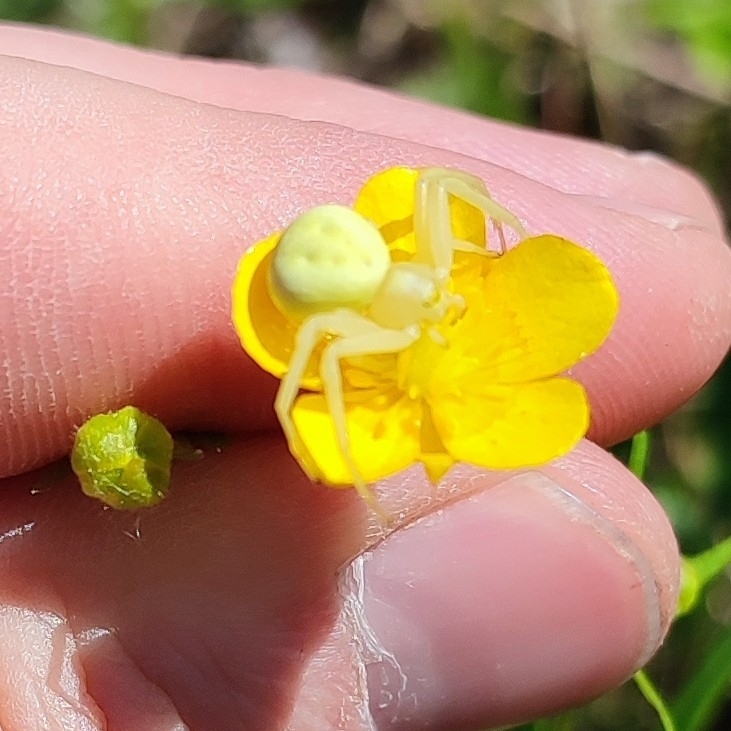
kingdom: Animalia
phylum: Arthropoda
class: Arachnida
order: Araneae
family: Thomisidae
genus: Misumena
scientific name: Misumena vatia
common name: Goldenrod crab spider
